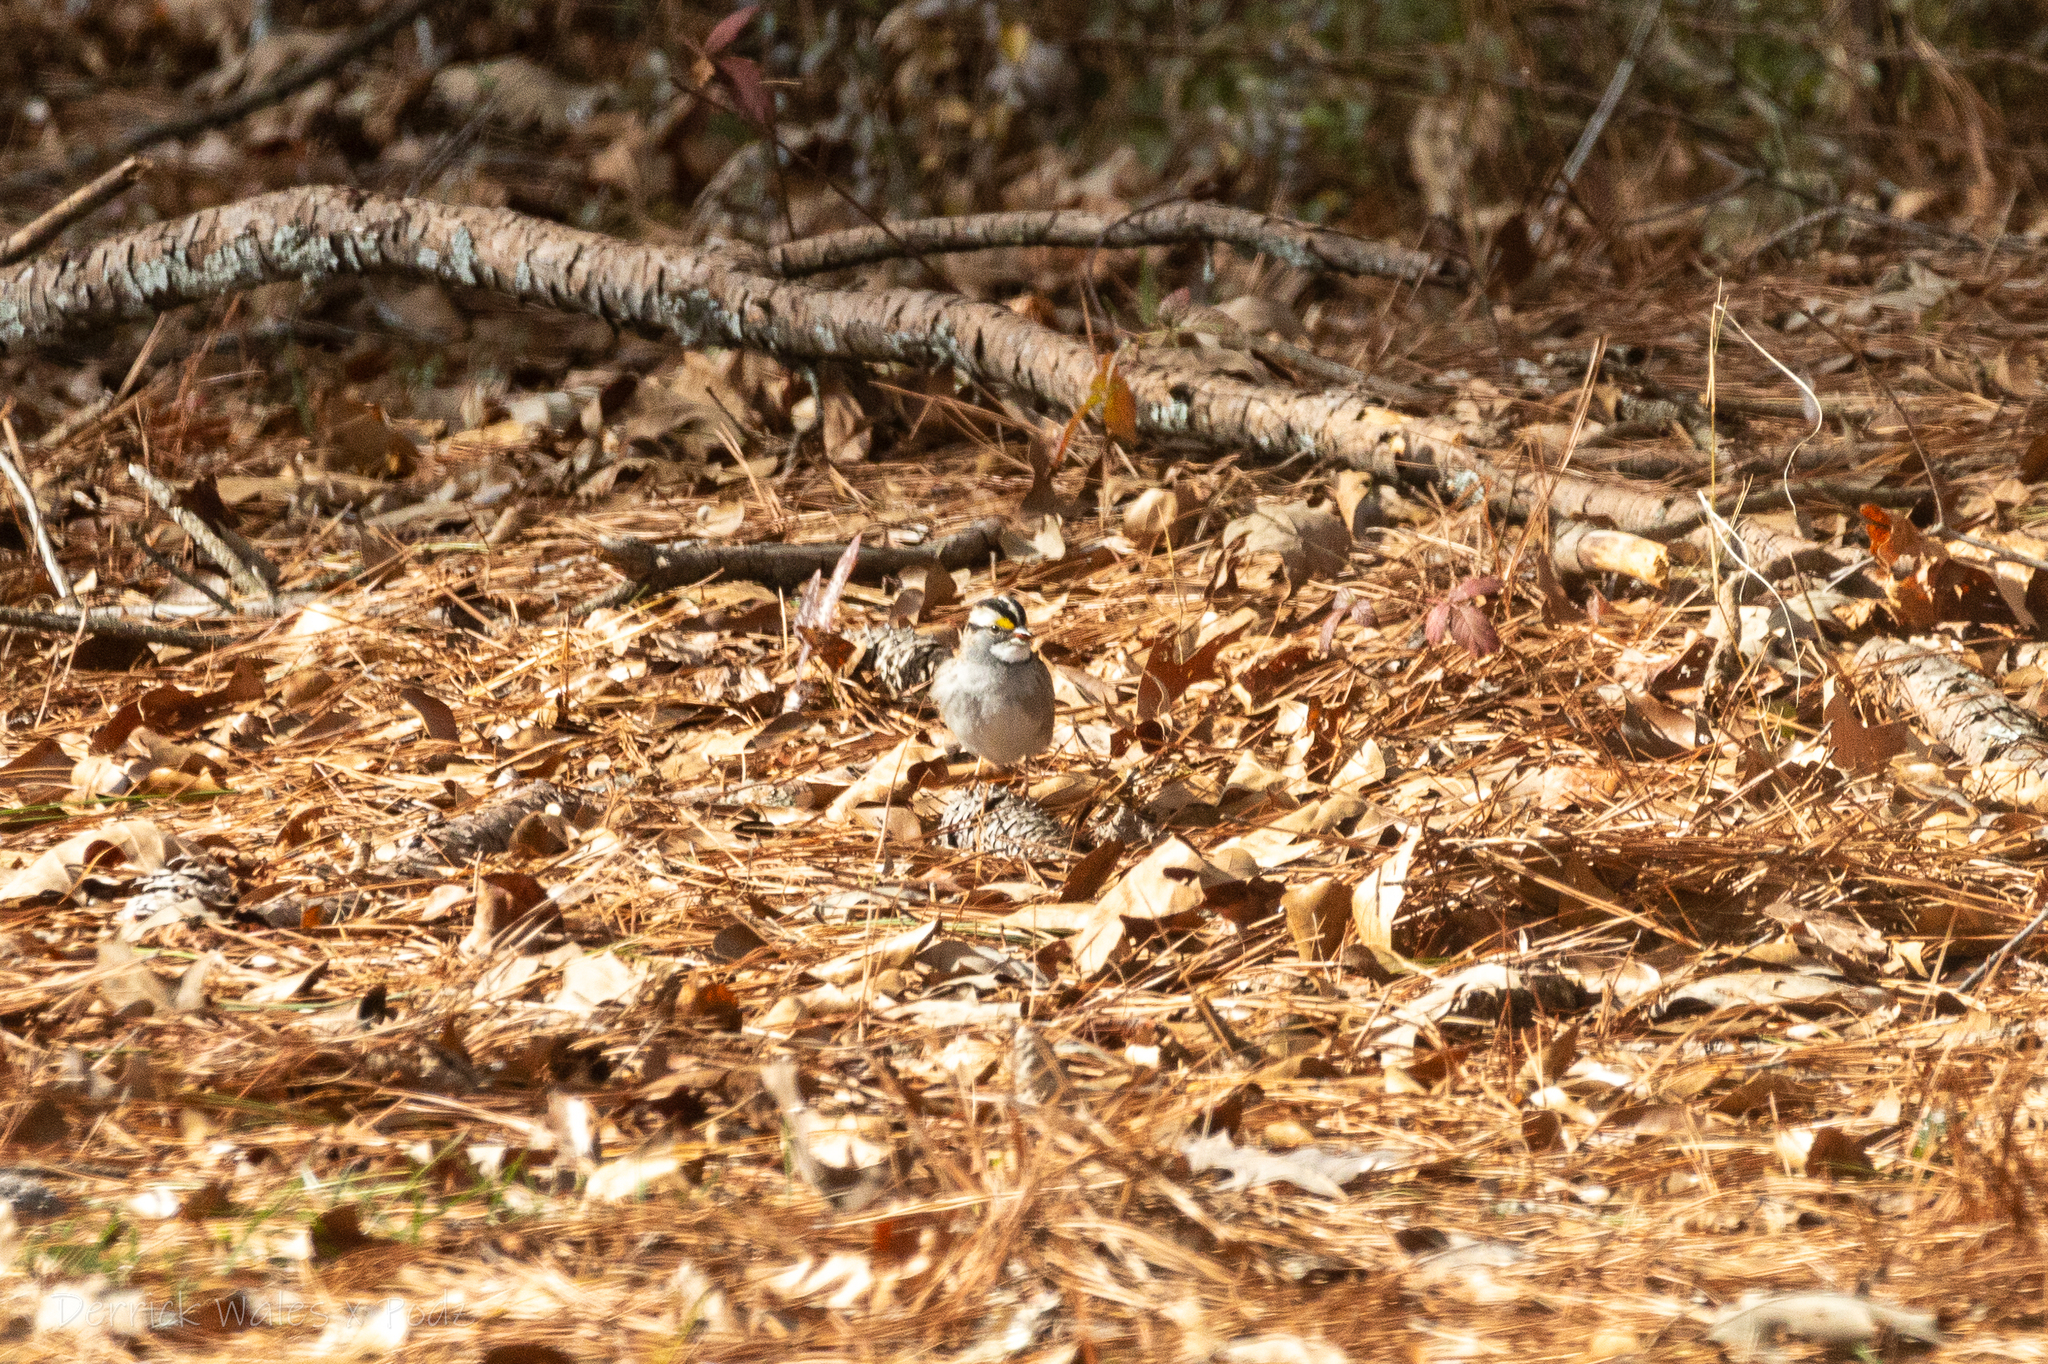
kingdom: Animalia
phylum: Chordata
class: Aves
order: Passeriformes
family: Passerellidae
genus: Zonotrichia
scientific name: Zonotrichia albicollis
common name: White-throated sparrow
